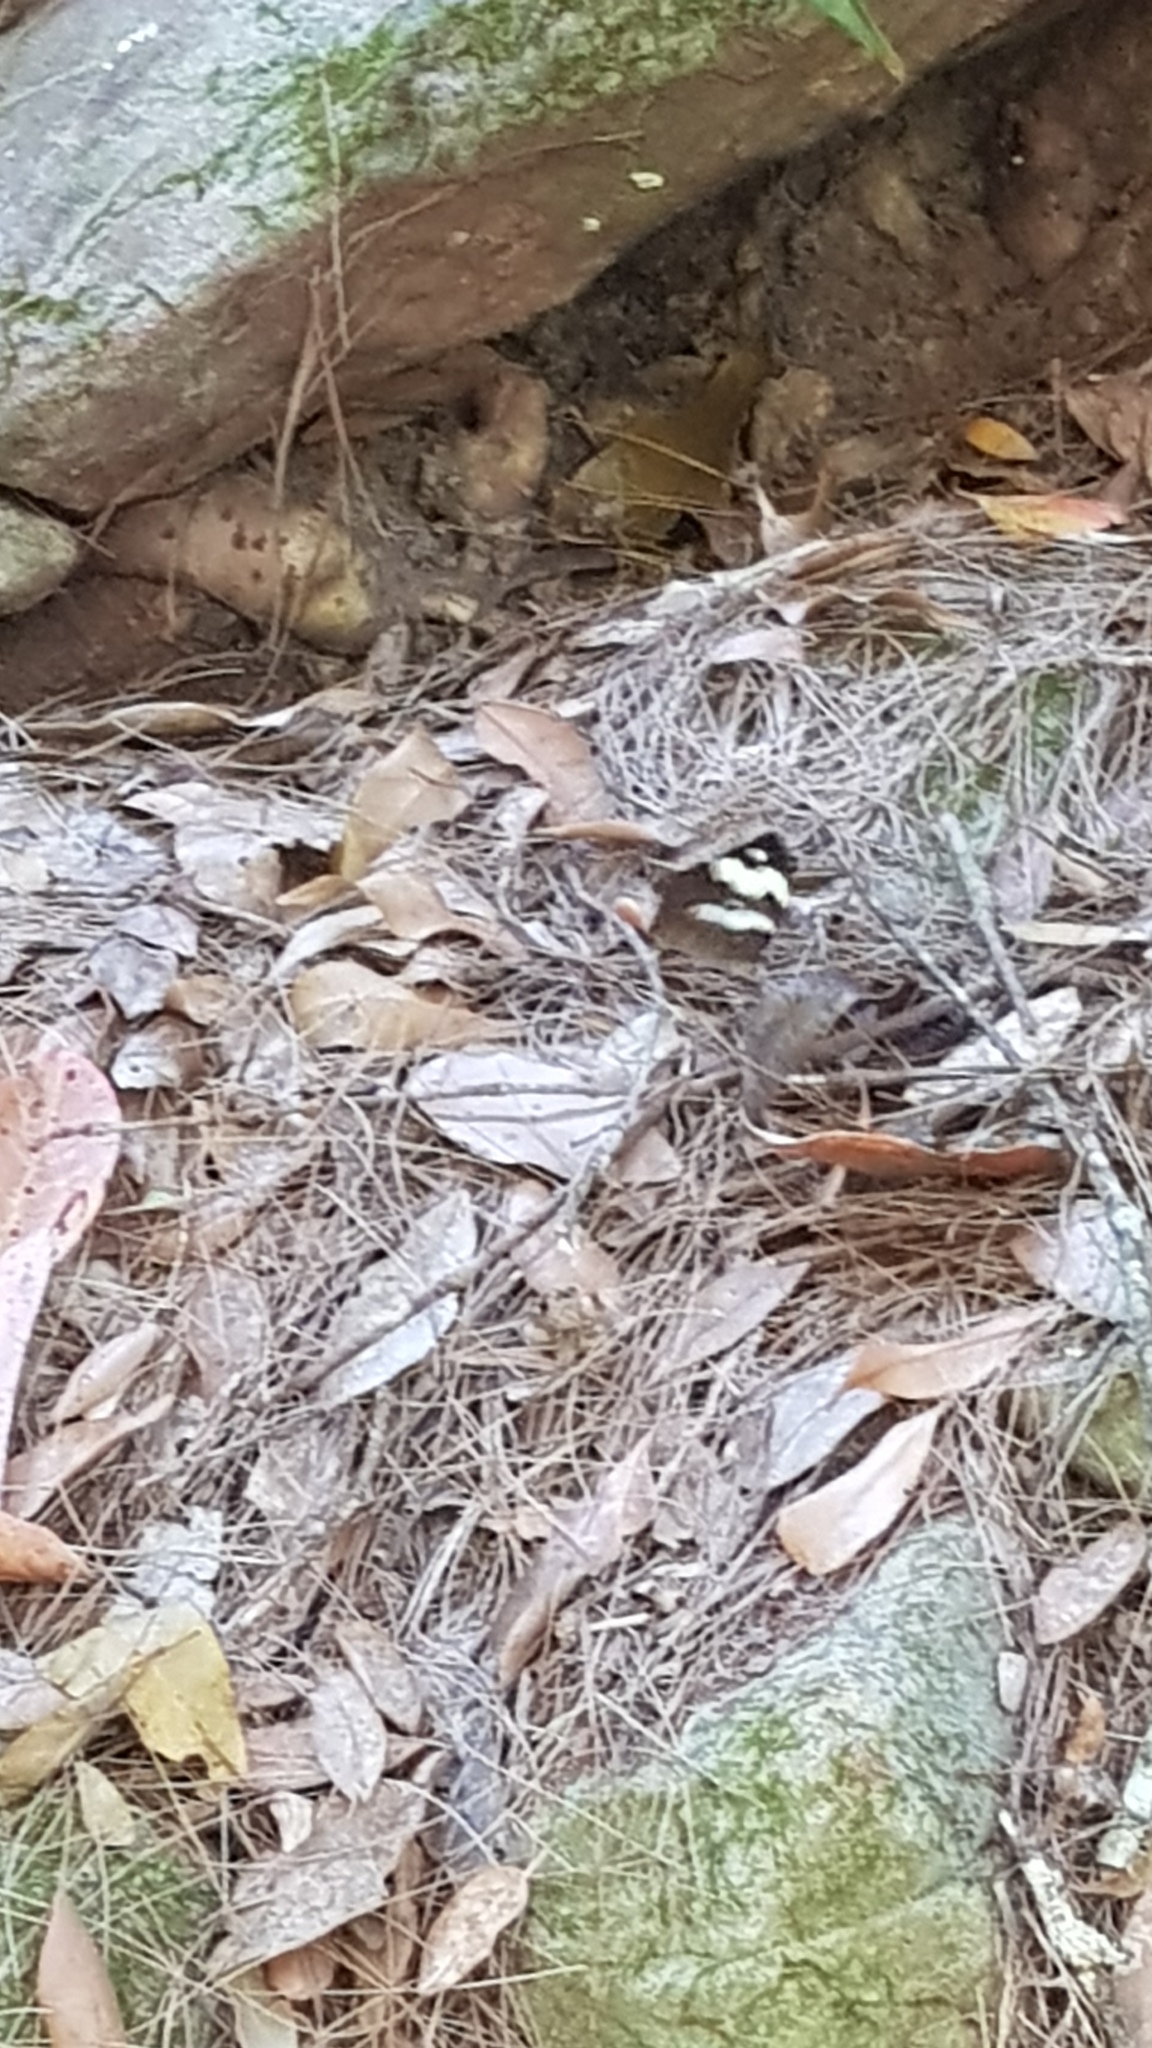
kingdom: Animalia
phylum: Arthropoda
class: Insecta
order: Lepidoptera
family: Nymphalidae
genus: Heteronympha
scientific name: Heteronympha mirifica
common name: Wonder brown
